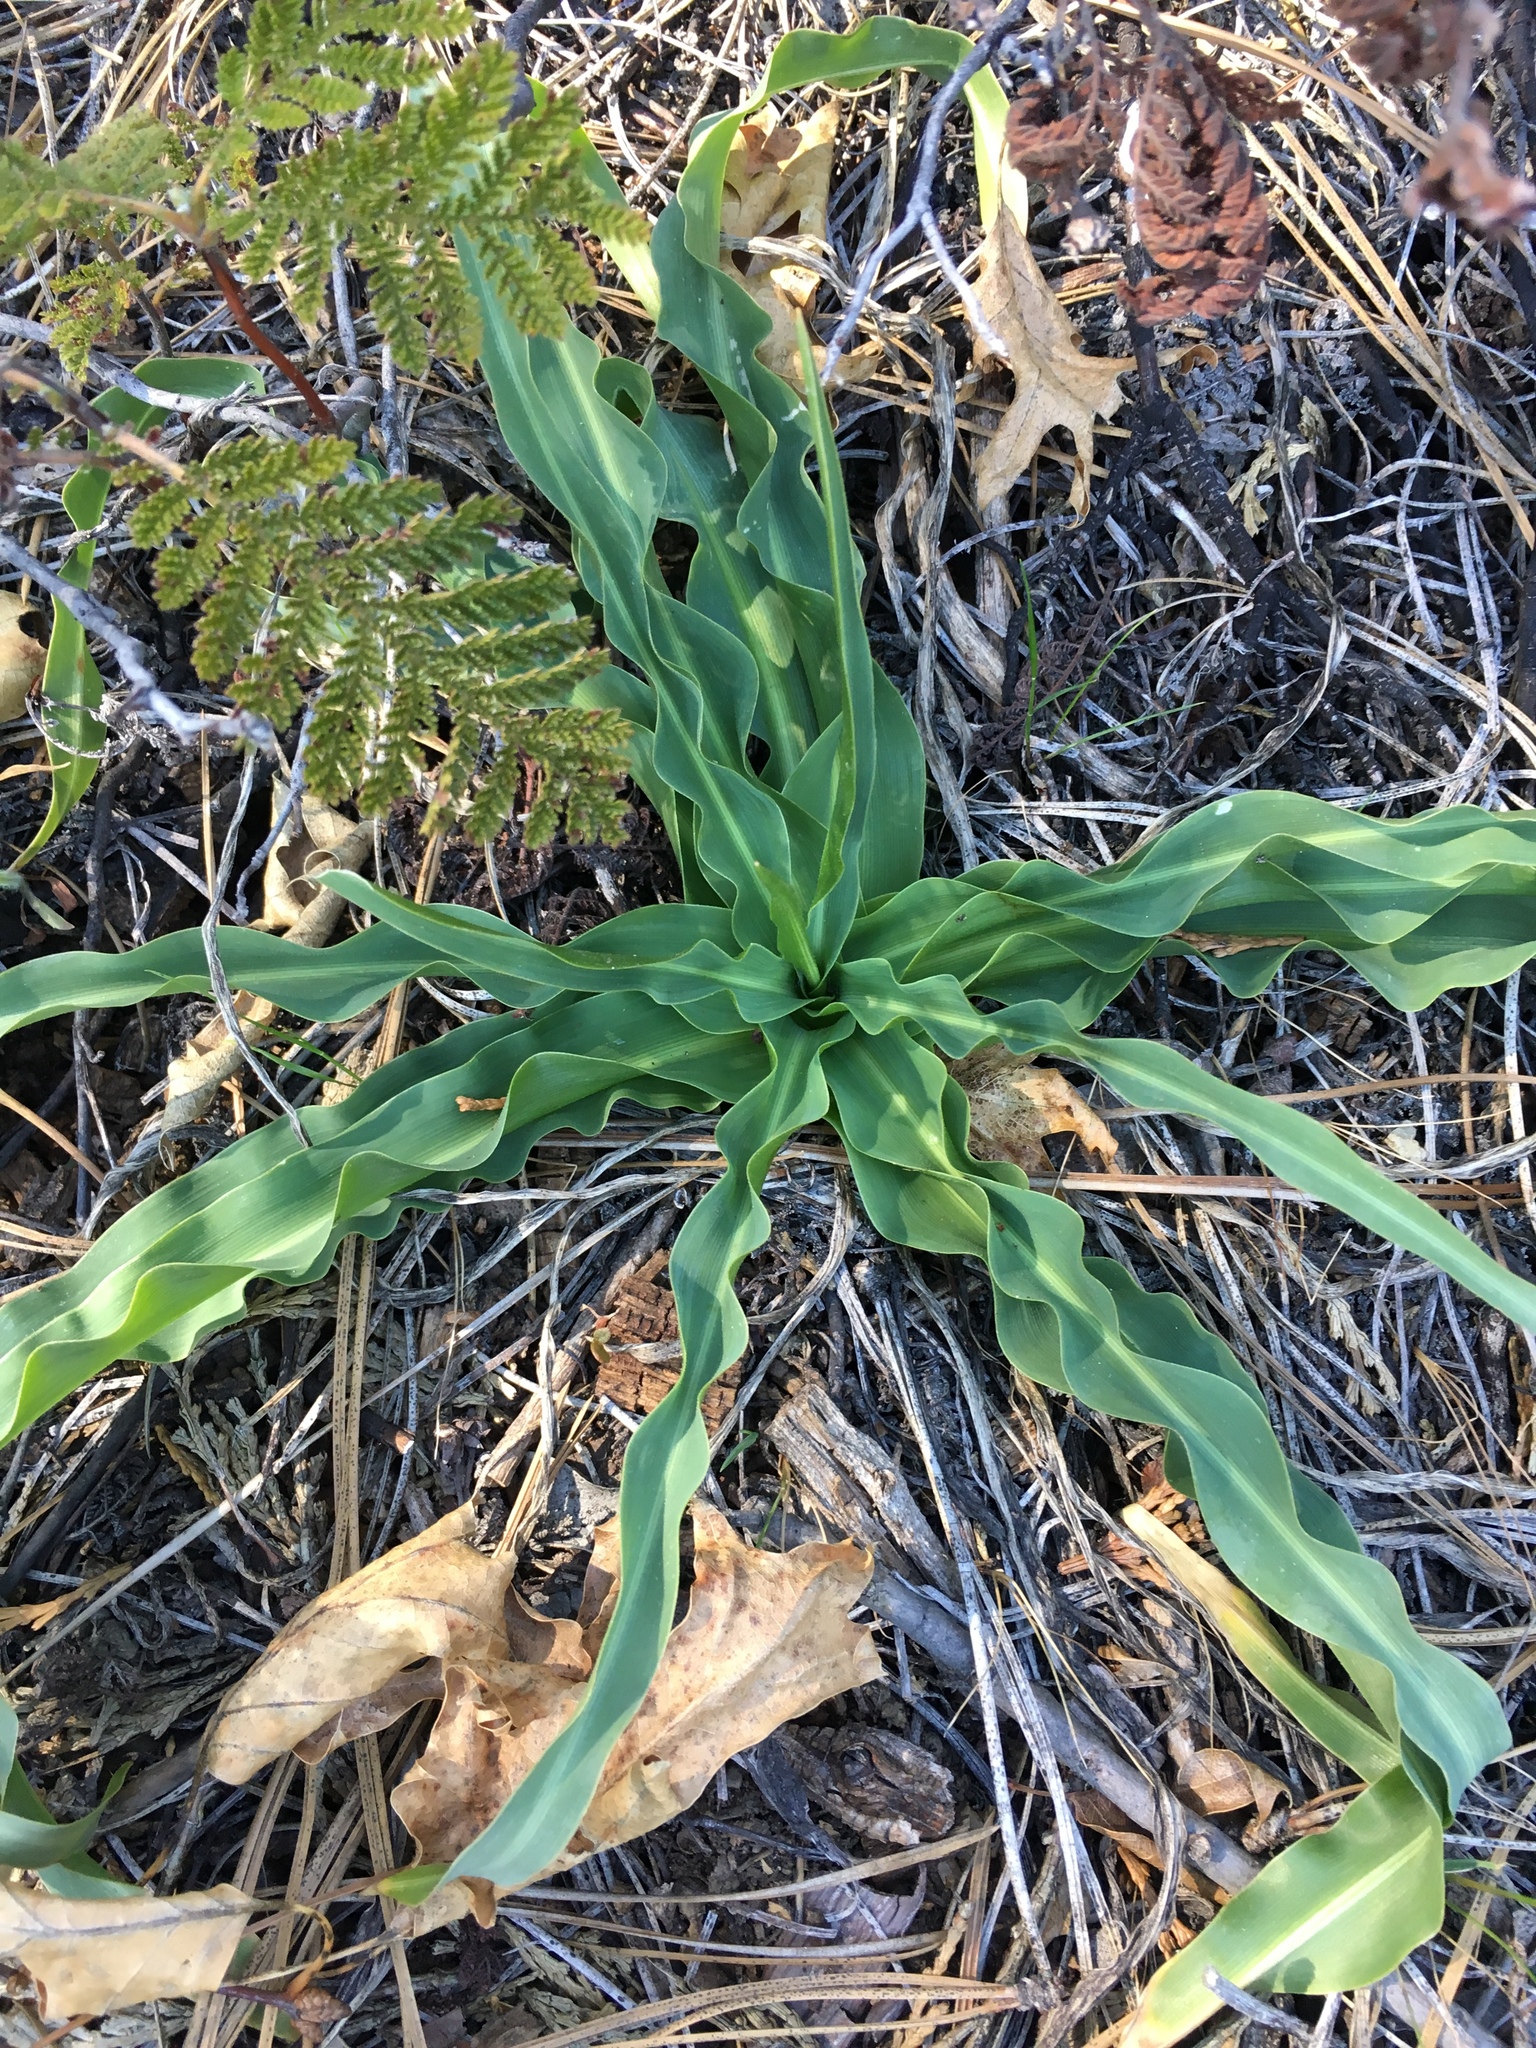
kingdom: Plantae
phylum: Tracheophyta
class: Liliopsida
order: Asparagales
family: Asparagaceae
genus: Chlorogalum
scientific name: Chlorogalum pomeridianum
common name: Amole
